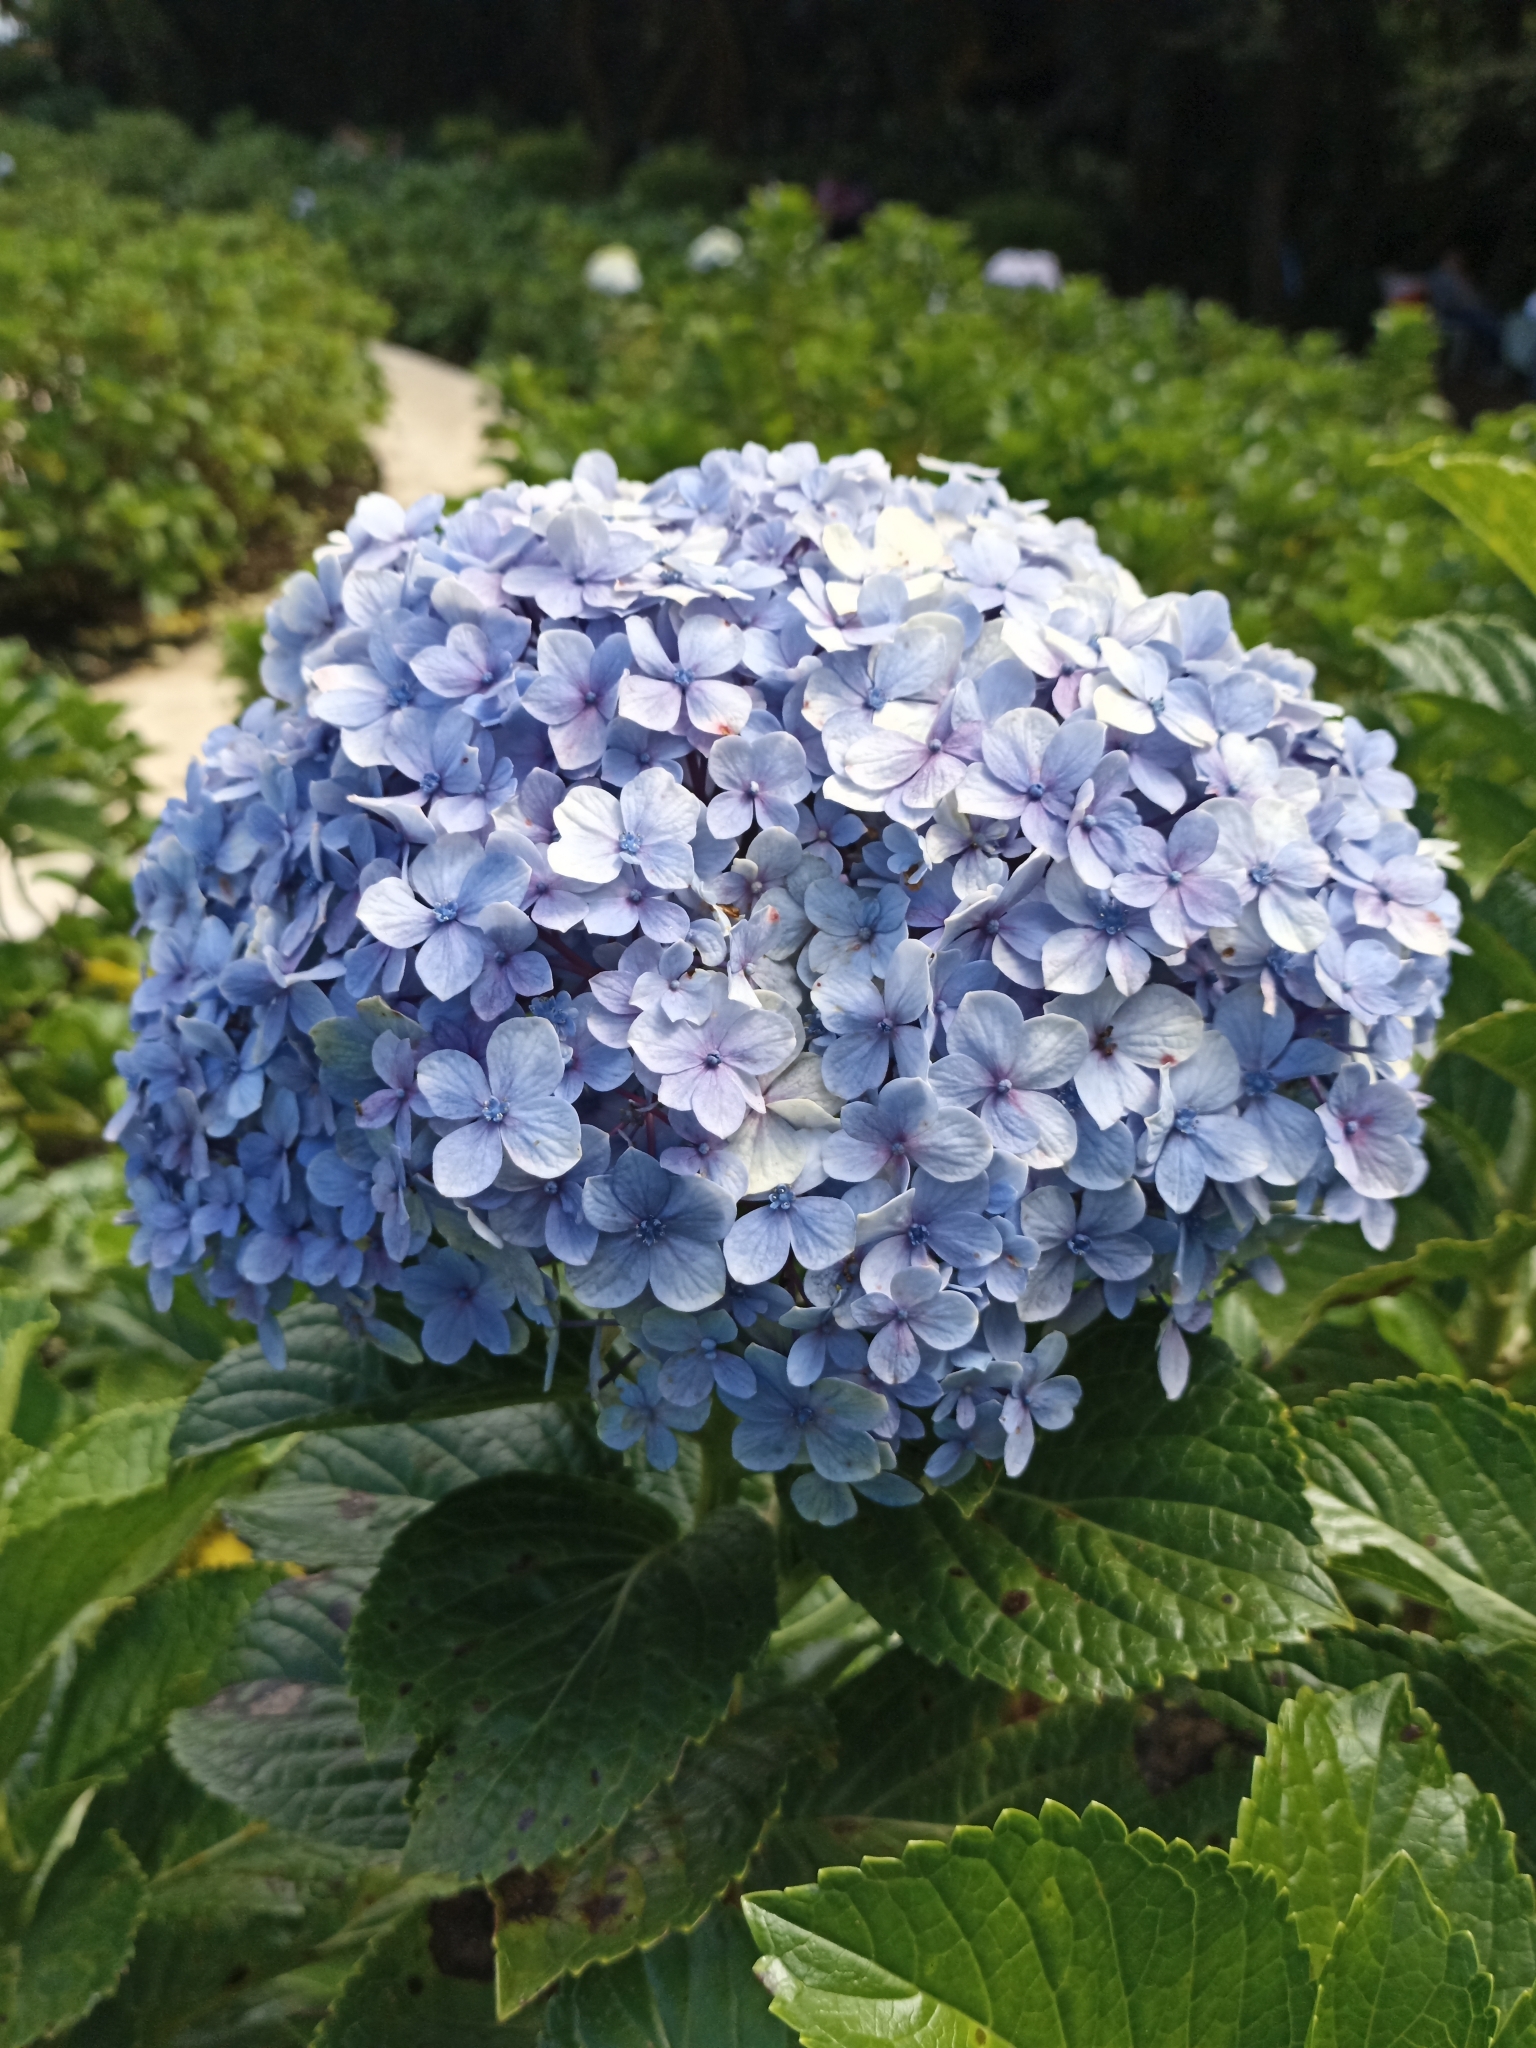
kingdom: Plantae
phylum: Tracheophyta
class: Magnoliopsida
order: Cornales
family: Hydrangeaceae
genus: Hydrangea
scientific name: Hydrangea macrophylla
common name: Hydrangea
